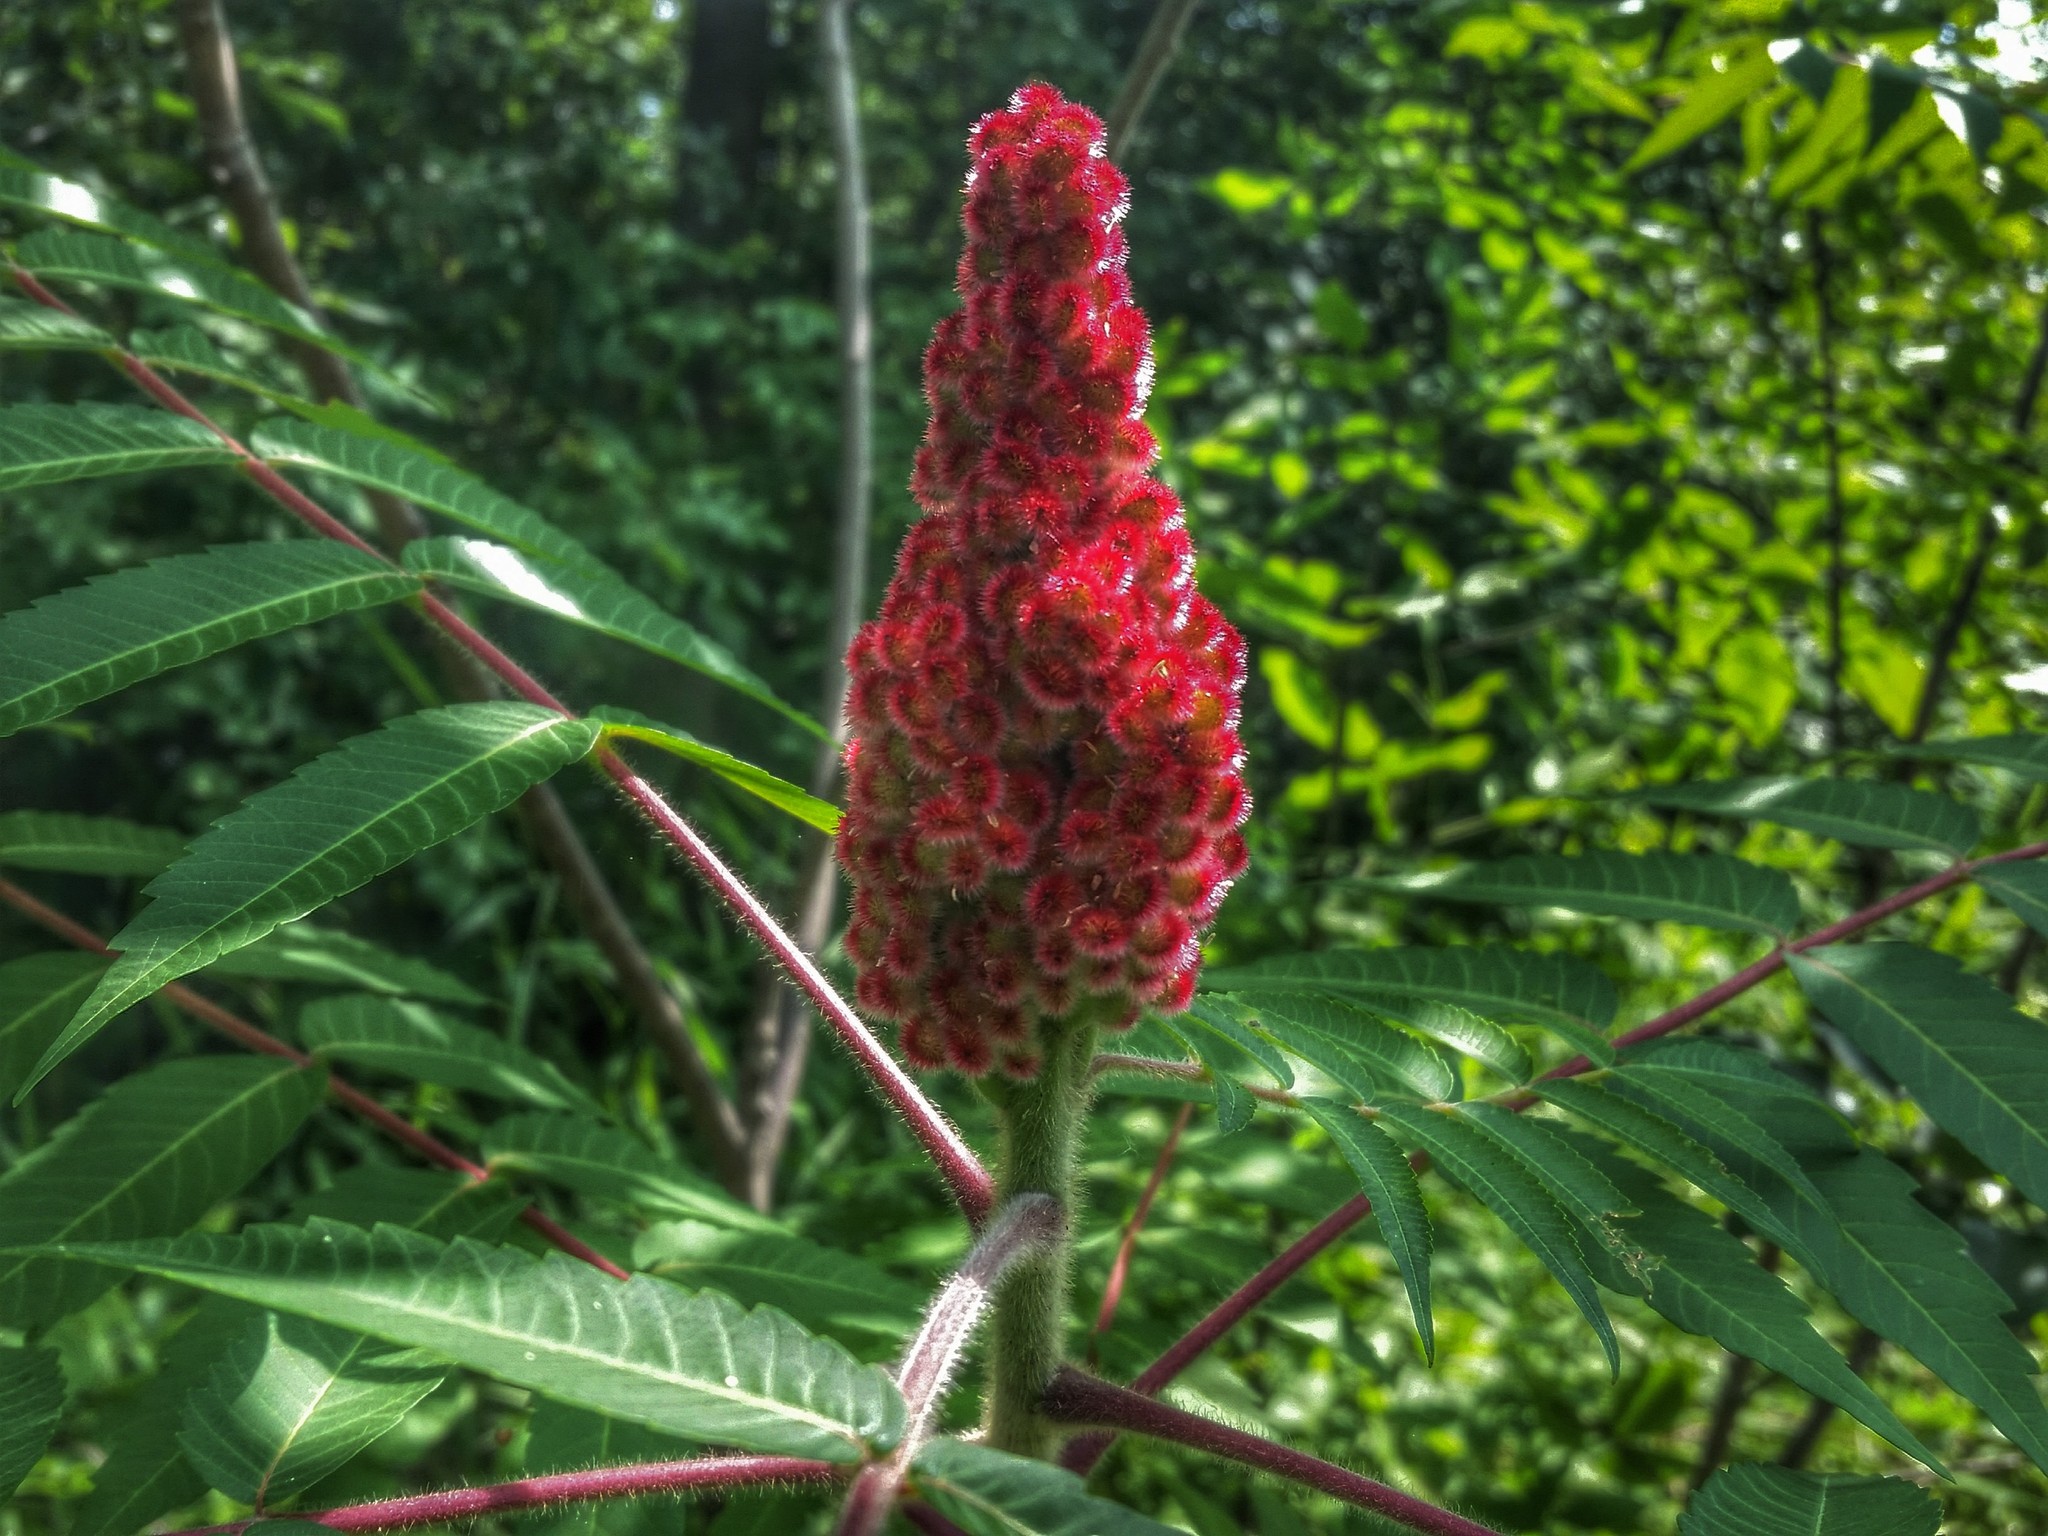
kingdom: Plantae
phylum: Tracheophyta
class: Magnoliopsida
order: Sapindales
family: Anacardiaceae
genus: Rhus
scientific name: Rhus typhina
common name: Staghorn sumac
